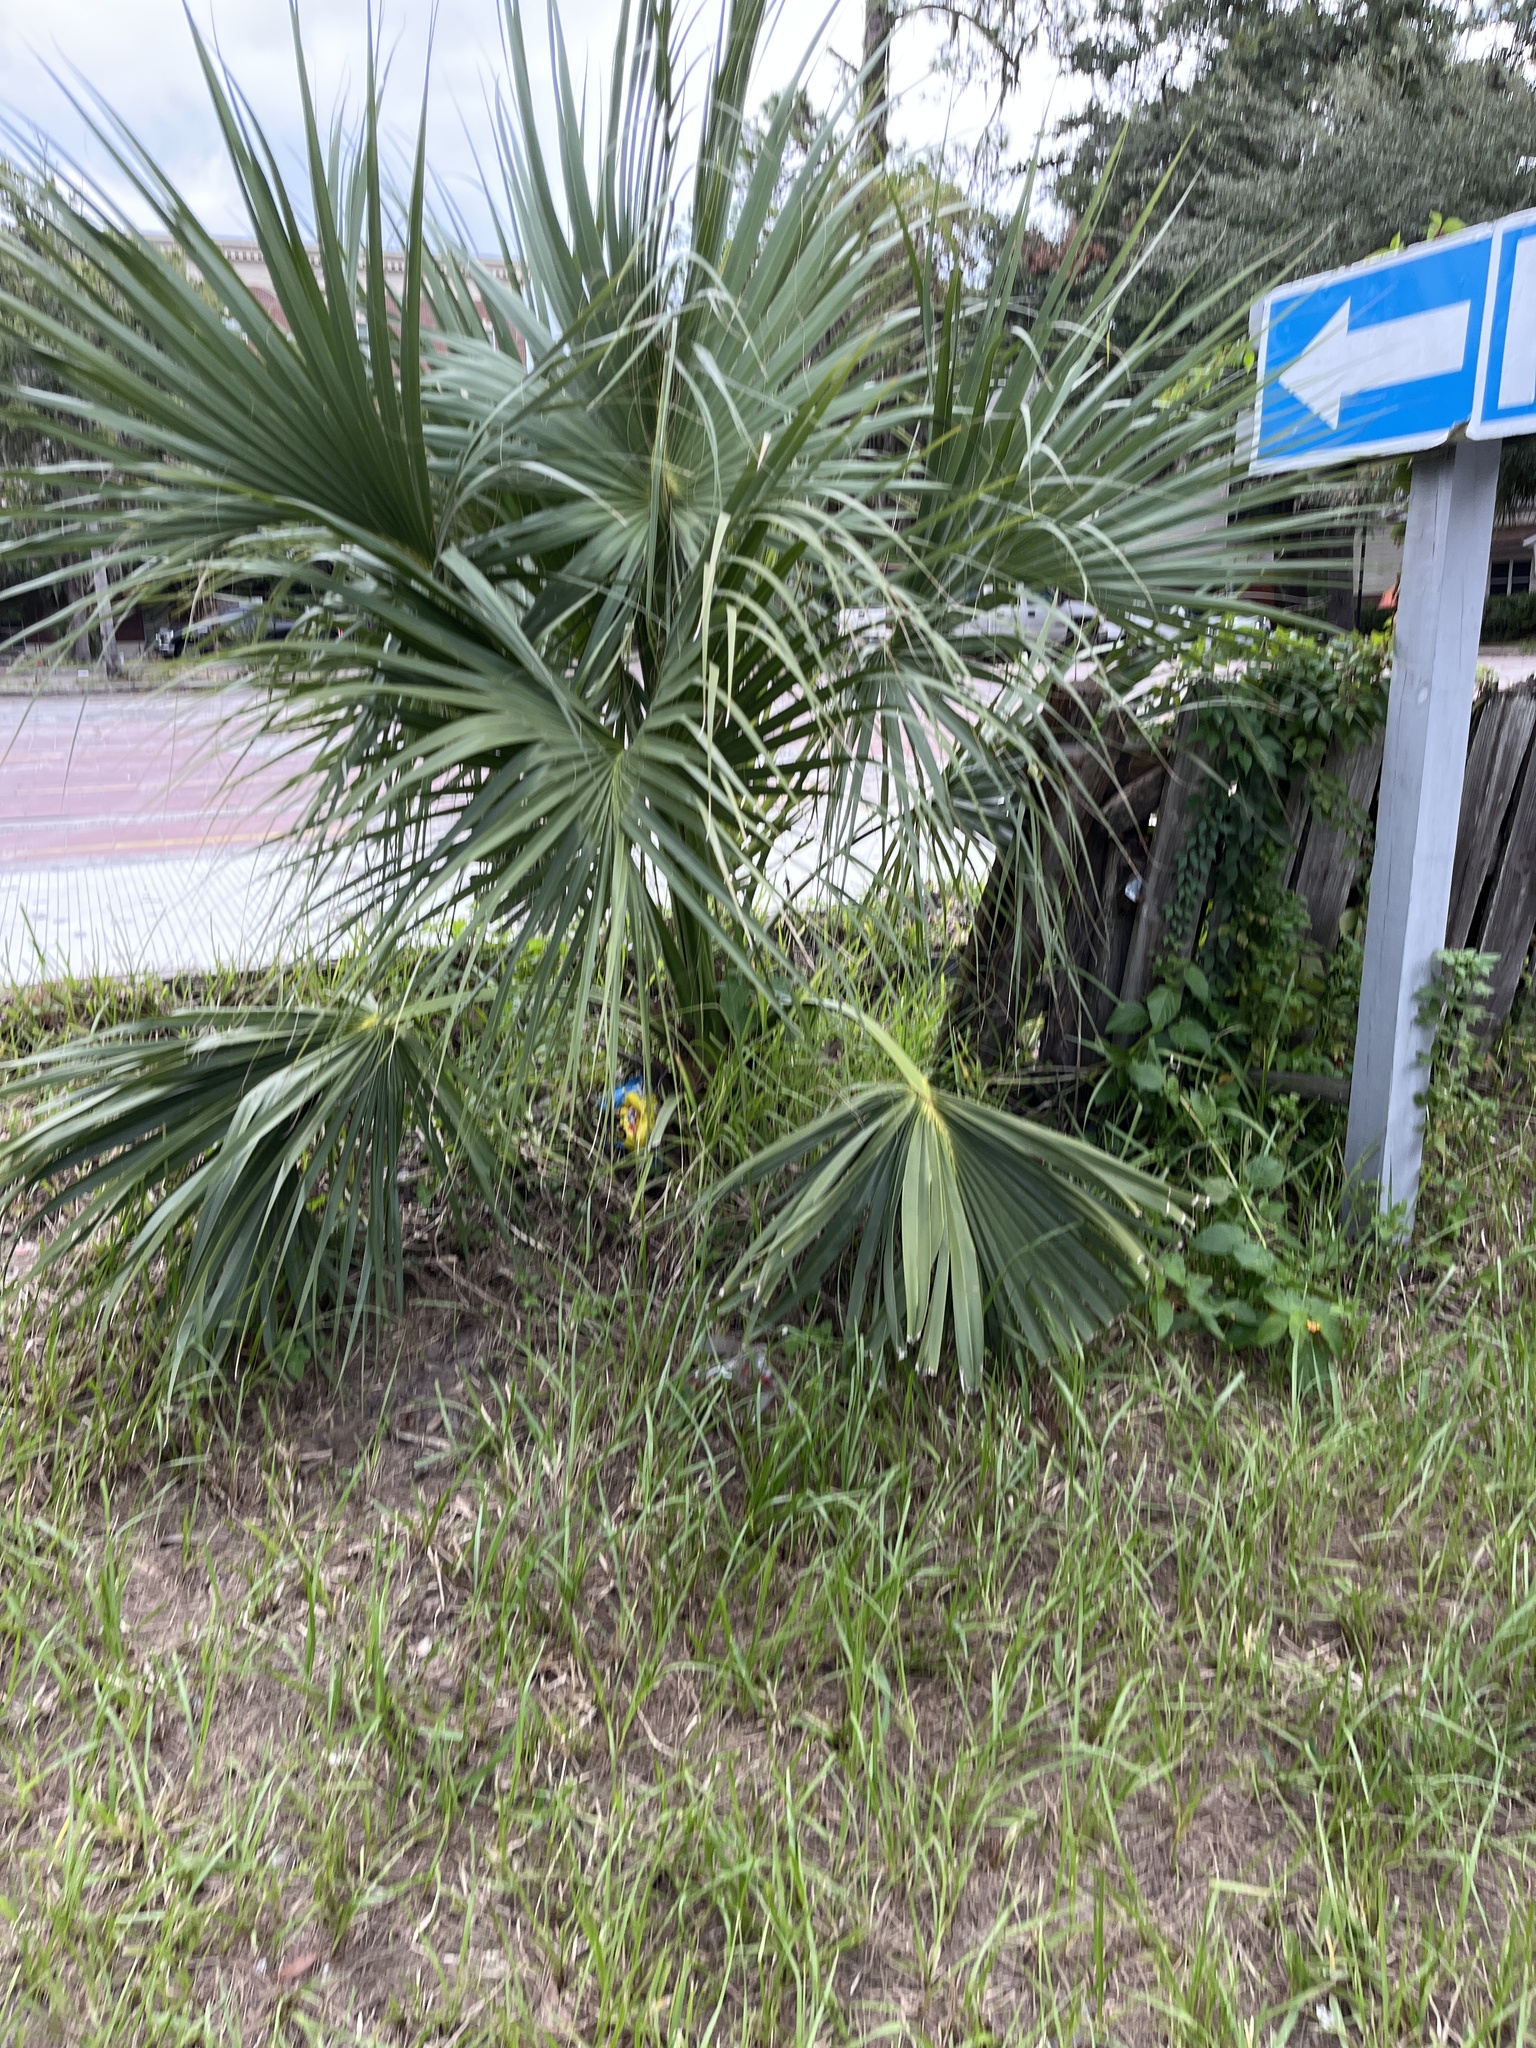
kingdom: Plantae
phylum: Tracheophyta
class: Liliopsida
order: Arecales
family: Arecaceae
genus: Sabal
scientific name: Sabal palmetto
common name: Blue palmetto
